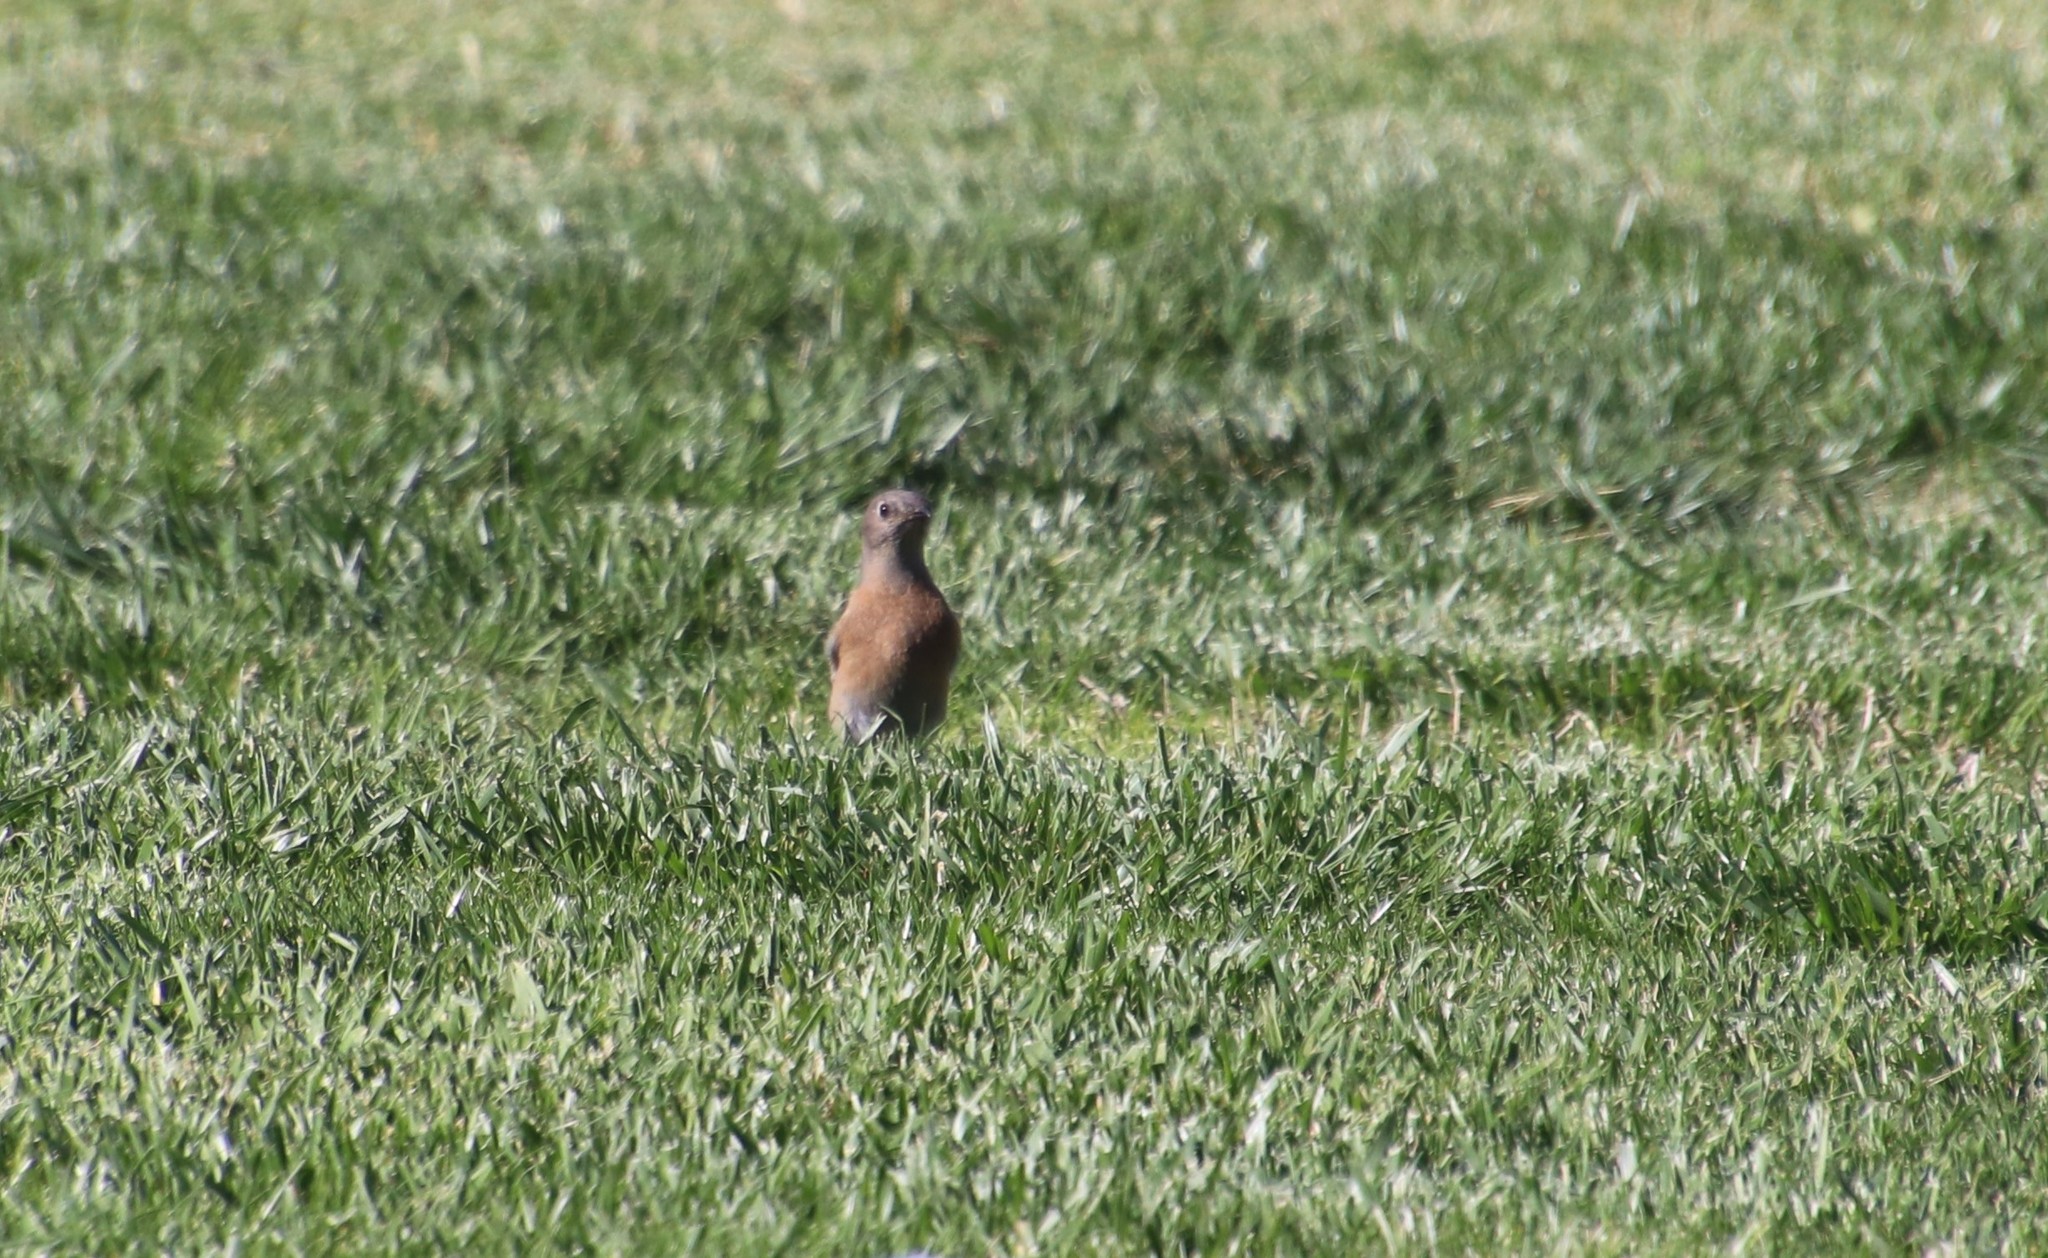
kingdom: Animalia
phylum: Chordata
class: Aves
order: Passeriformes
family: Turdidae
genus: Sialia
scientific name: Sialia mexicana
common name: Western bluebird
